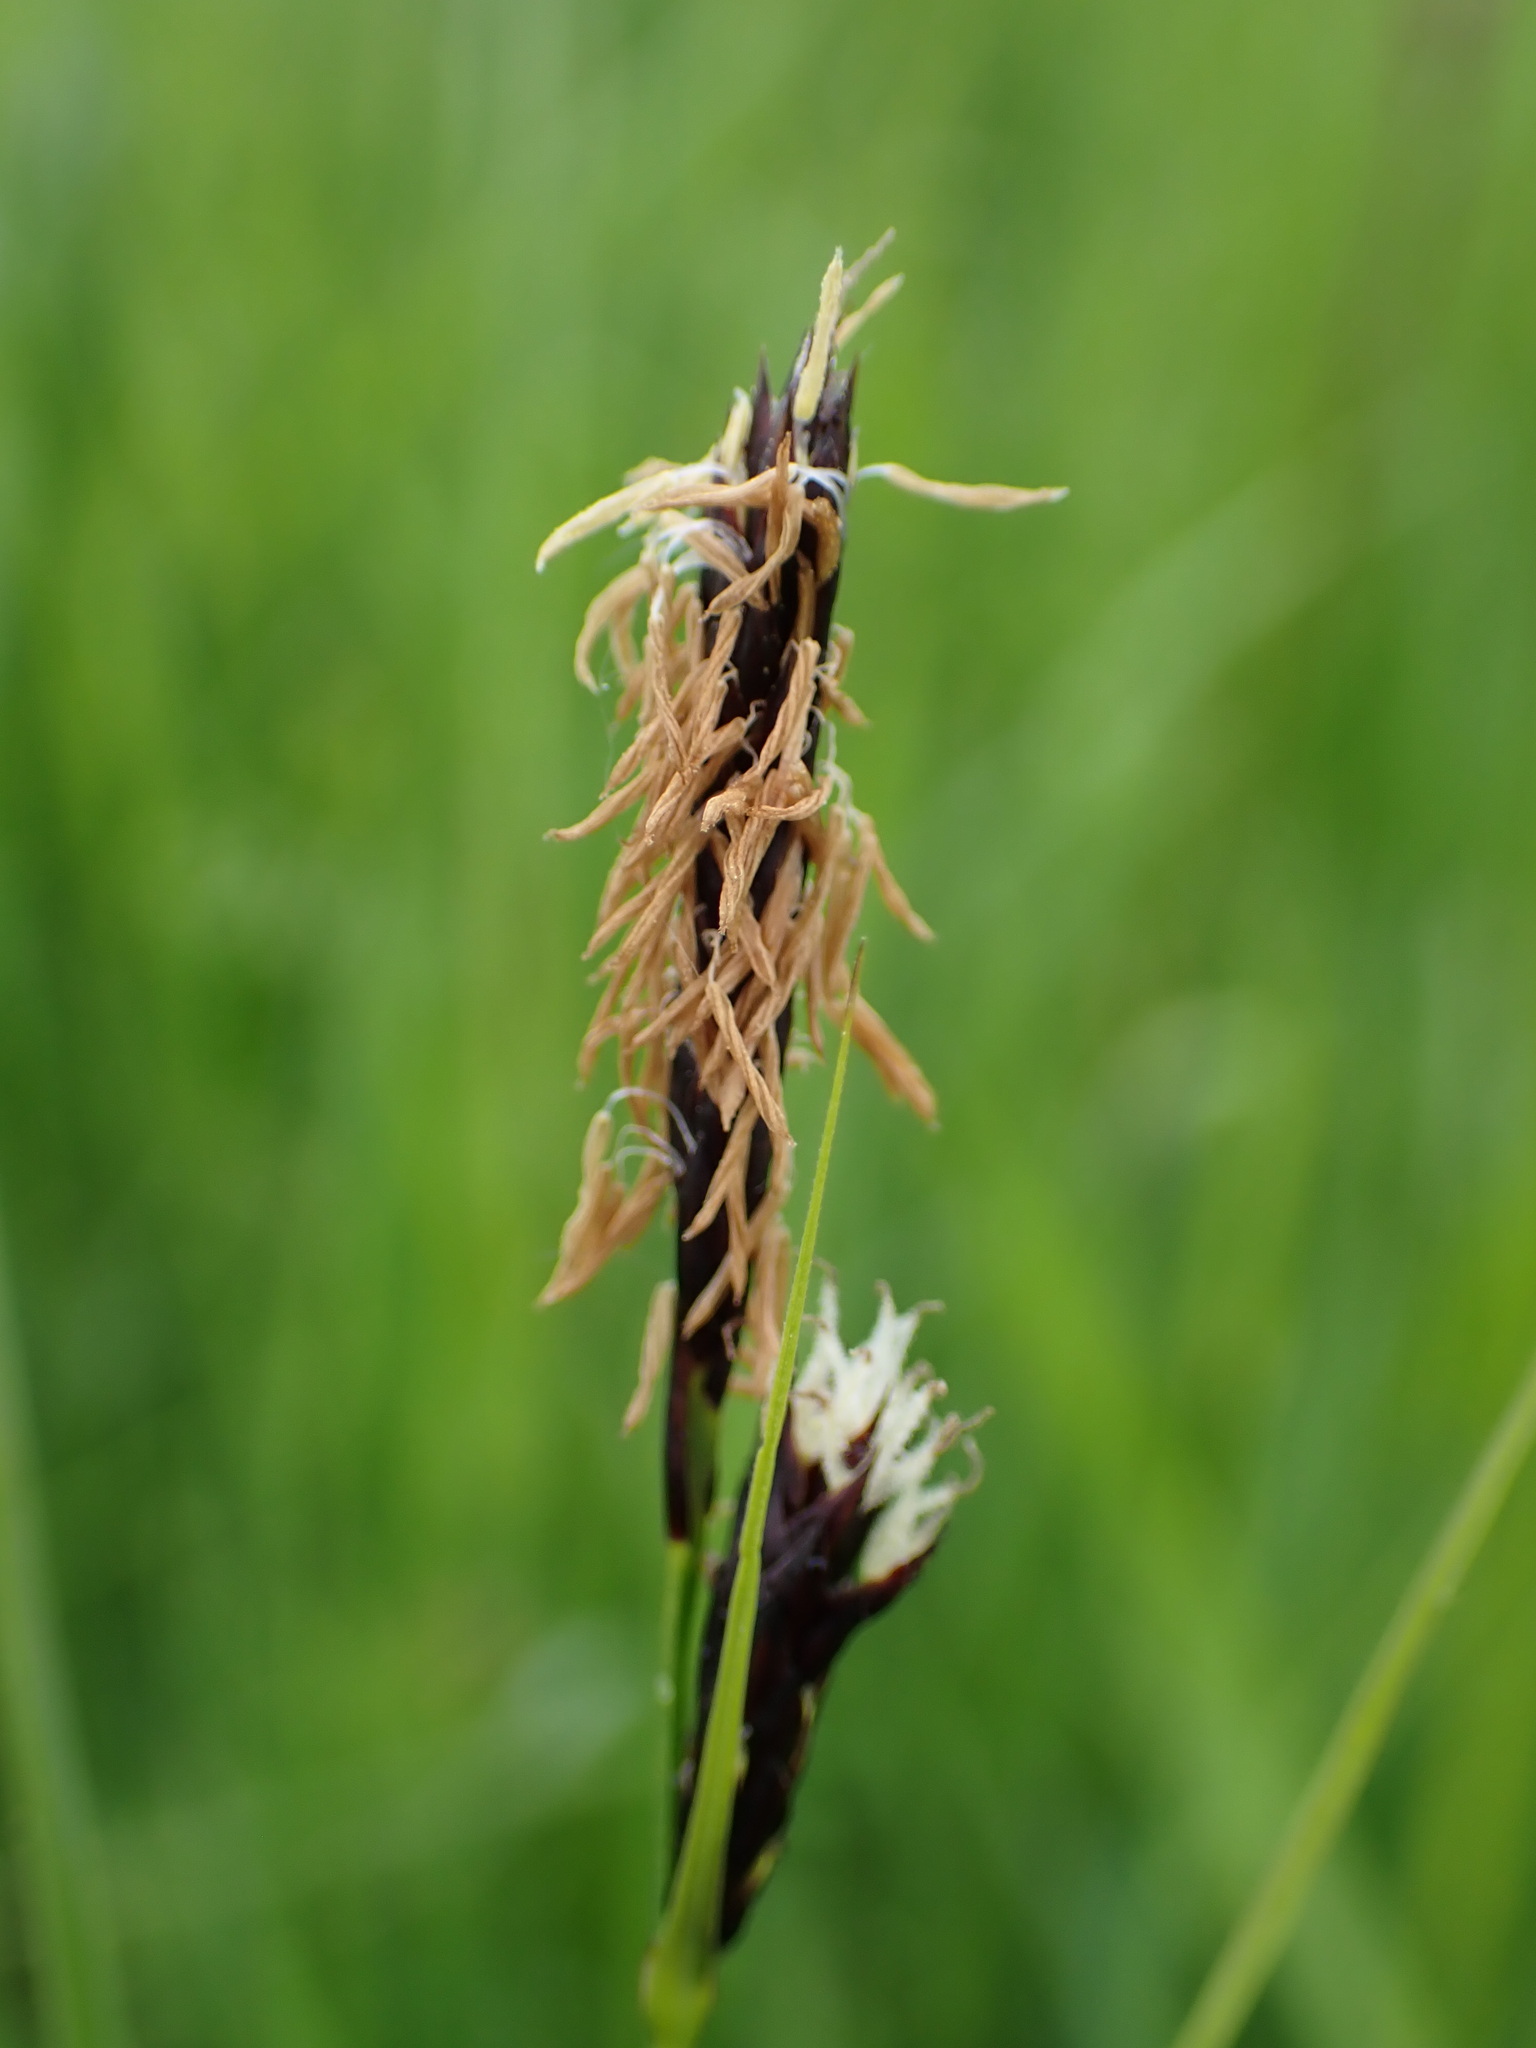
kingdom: Plantae
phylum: Tracheophyta
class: Liliopsida
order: Poales
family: Cyperaceae
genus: Carex
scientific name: Carex melanostachya
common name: Black-spiked sedge
